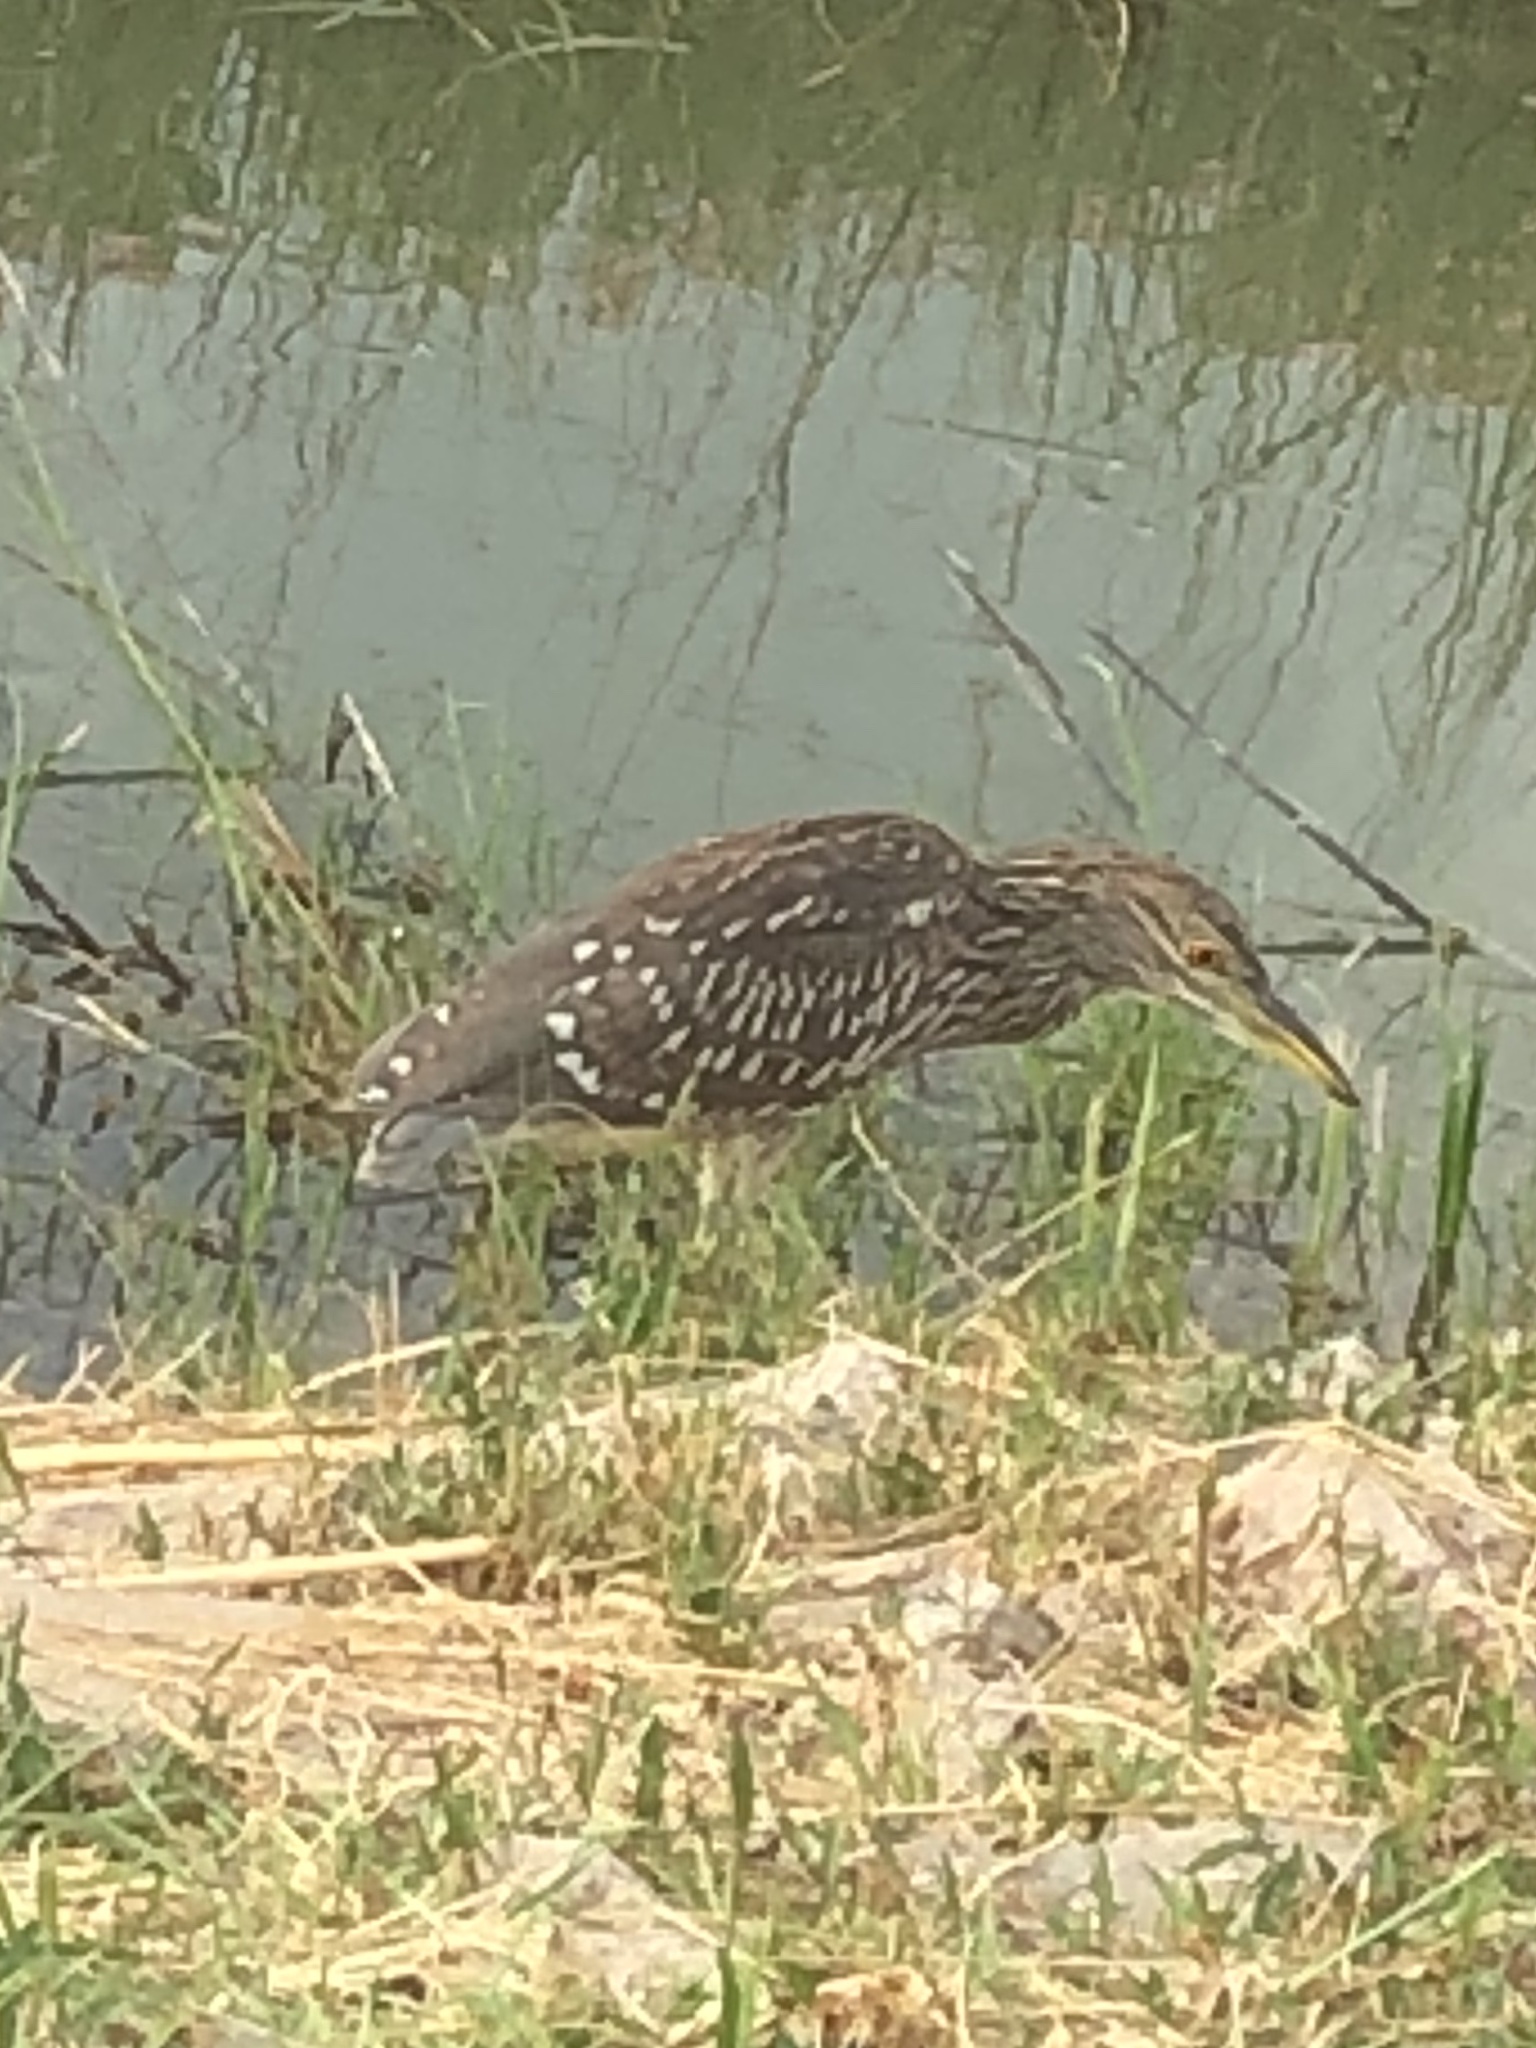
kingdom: Animalia
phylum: Chordata
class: Aves
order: Pelecaniformes
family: Ardeidae
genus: Nycticorax
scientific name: Nycticorax nycticorax
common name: Black-crowned night heron
